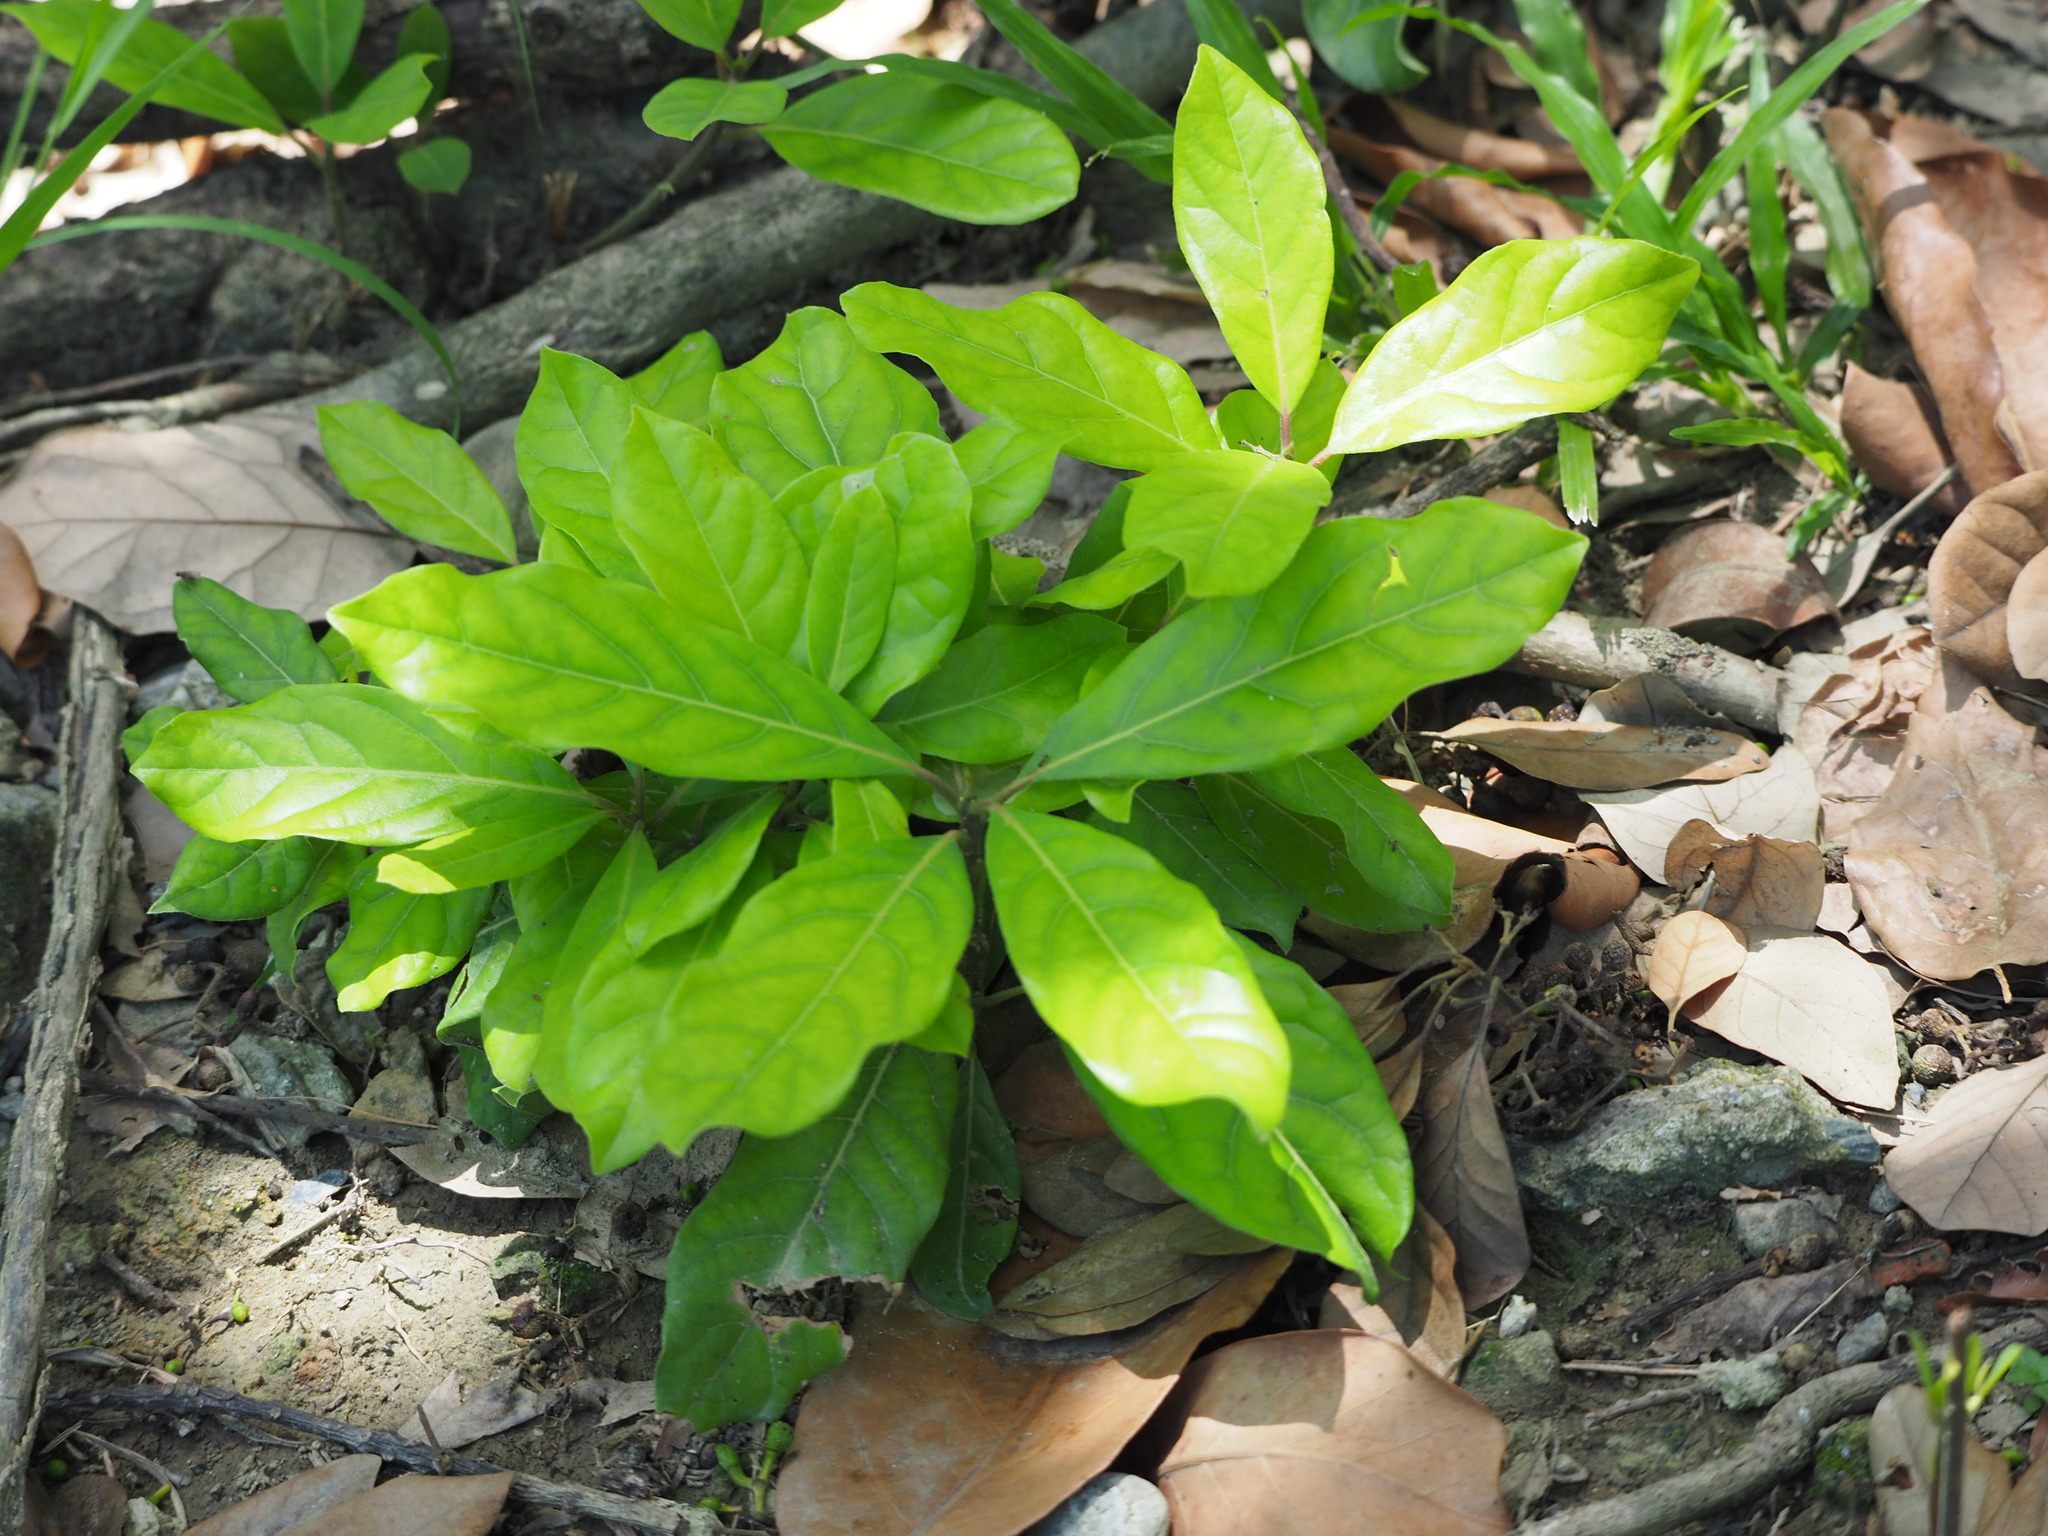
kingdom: Plantae
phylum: Tracheophyta
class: Magnoliopsida
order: Laurales
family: Lauraceae
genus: Litsea
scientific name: Litsea glutinosa
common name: Indian-laurel
